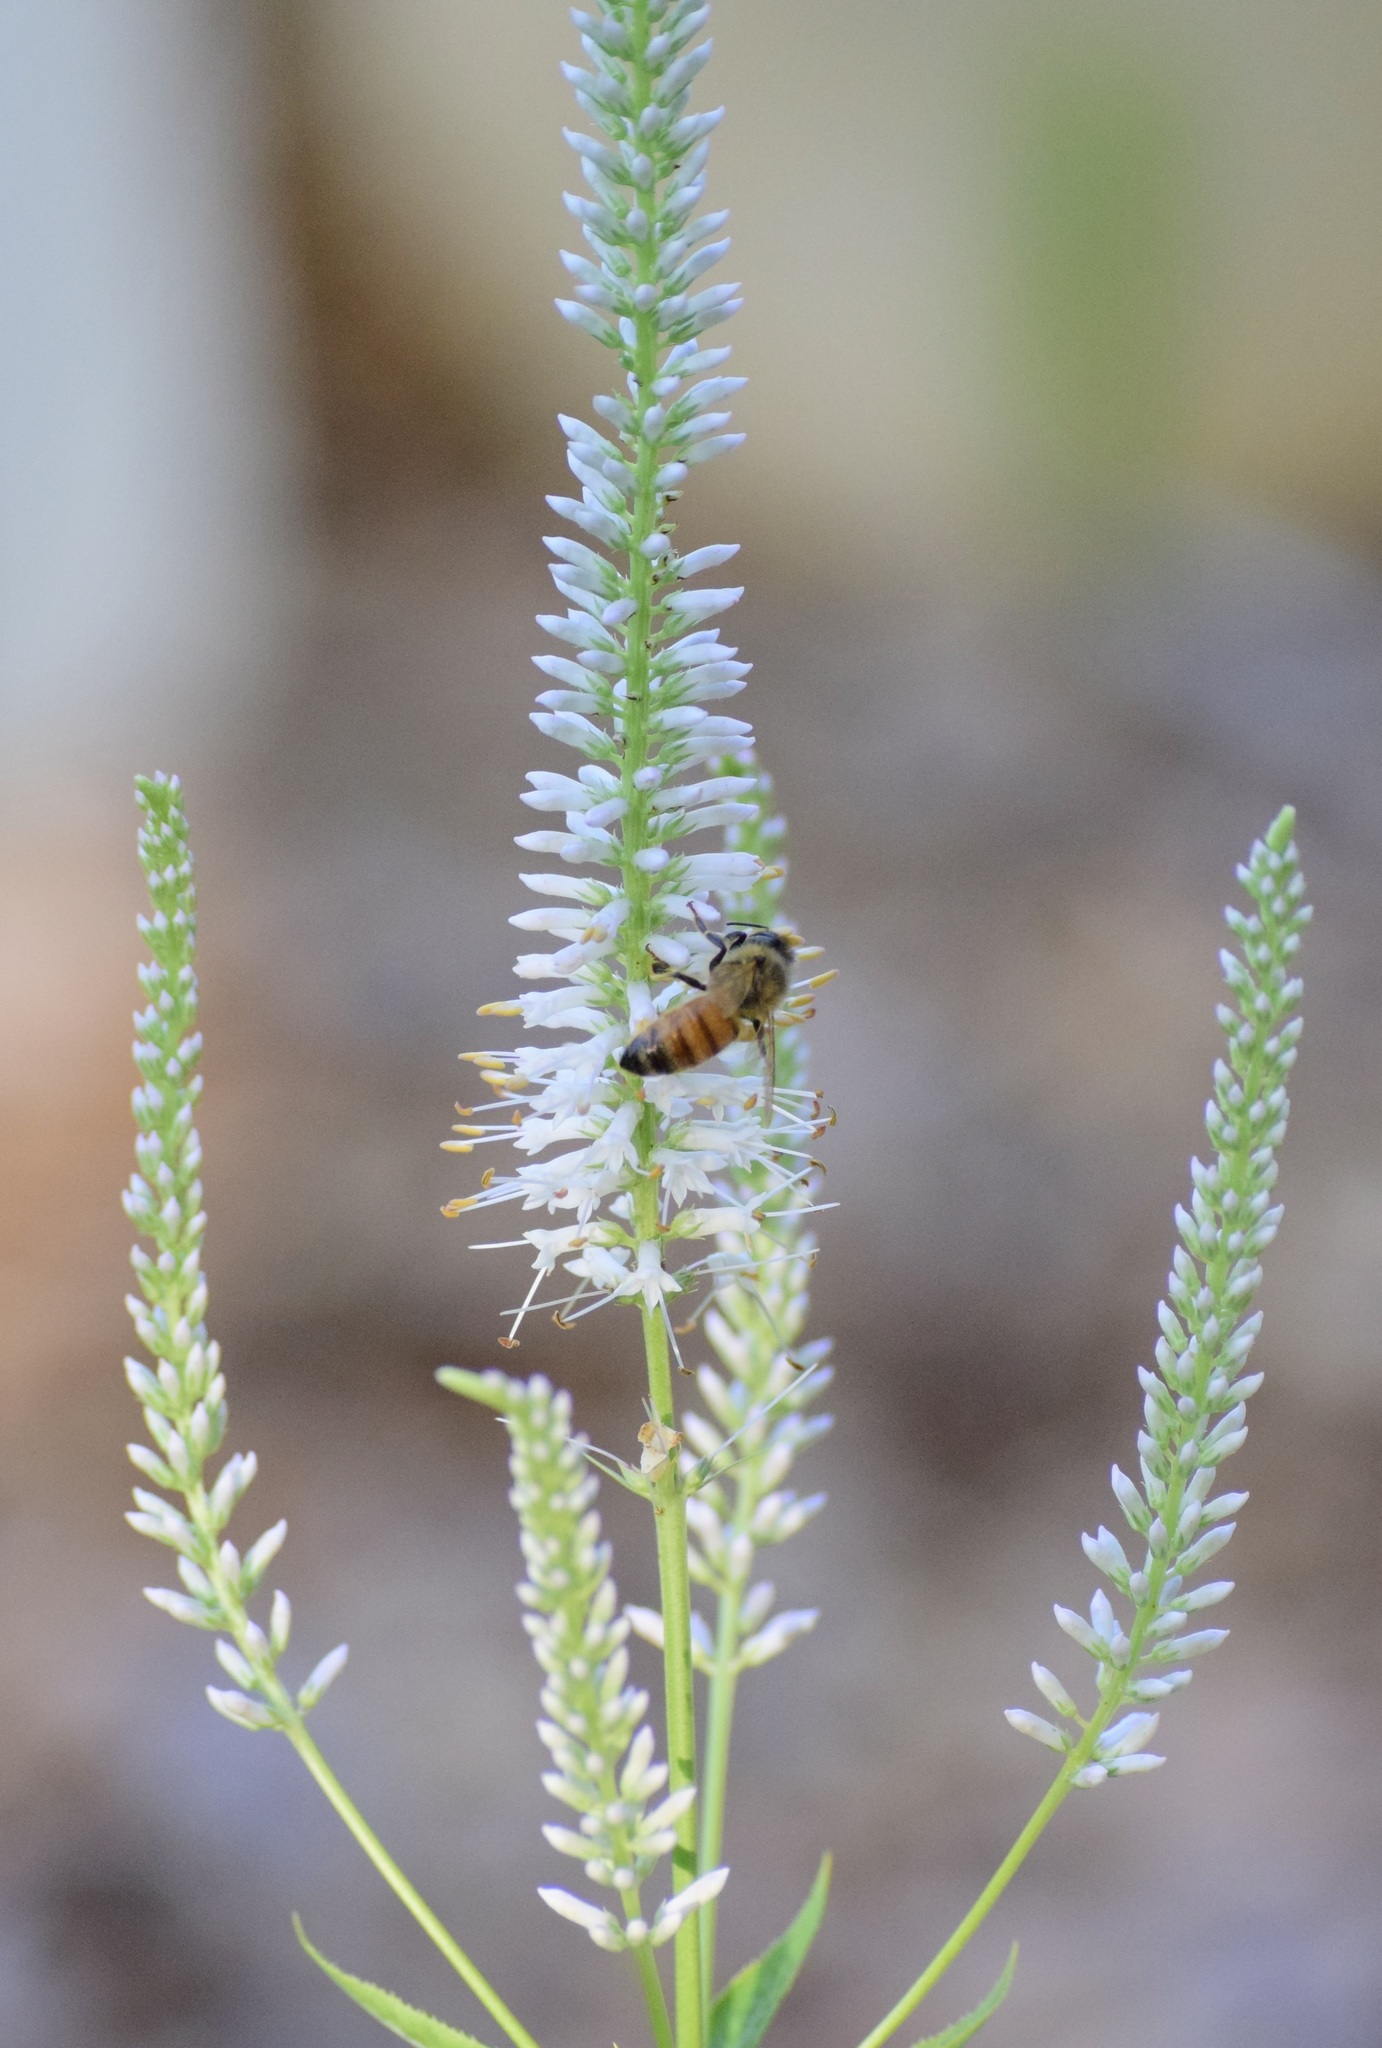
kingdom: Animalia
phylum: Arthropoda
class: Insecta
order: Hymenoptera
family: Apidae
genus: Apis
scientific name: Apis mellifera
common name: Honey bee
